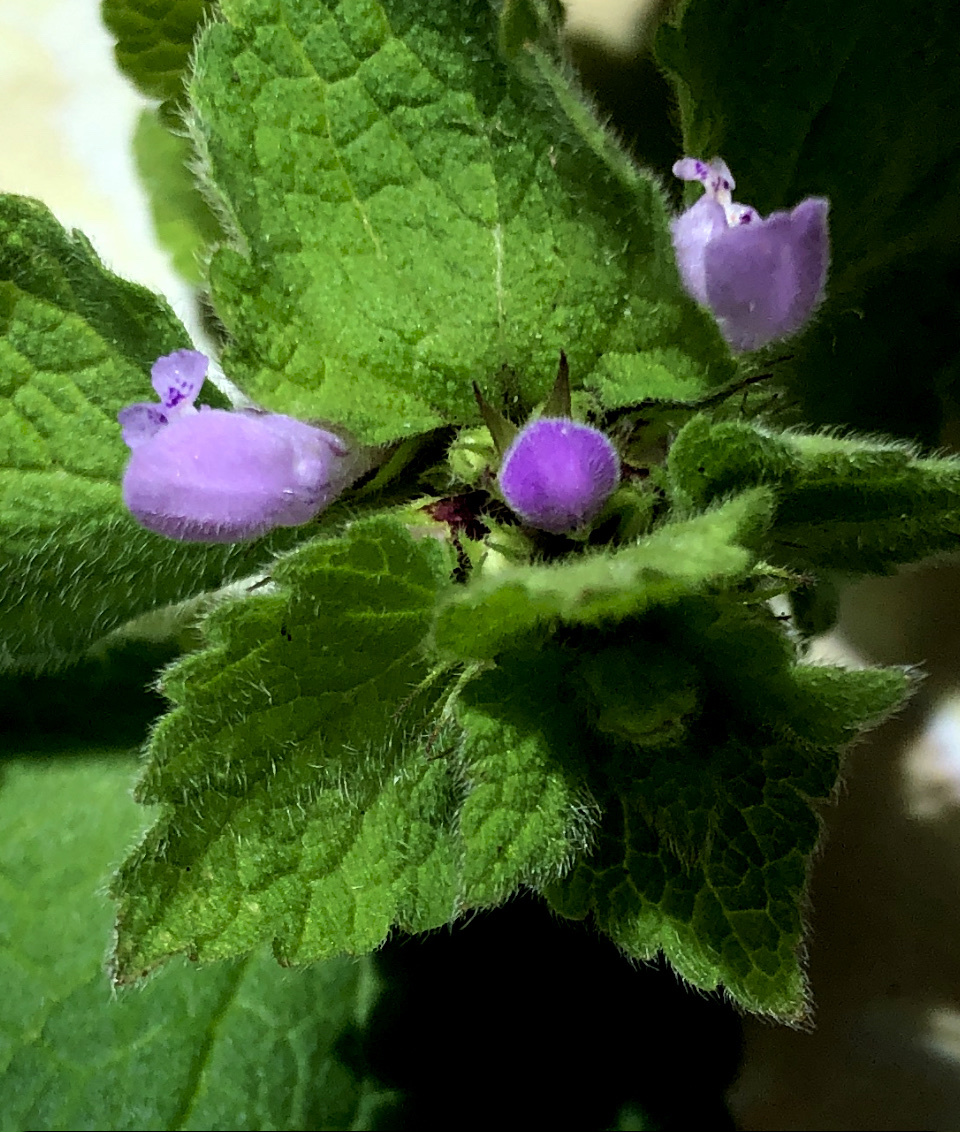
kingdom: Plantae
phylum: Tracheophyta
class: Magnoliopsida
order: Lamiales
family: Lamiaceae
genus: Lamium
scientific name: Lamium purpureum
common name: Red dead-nettle
